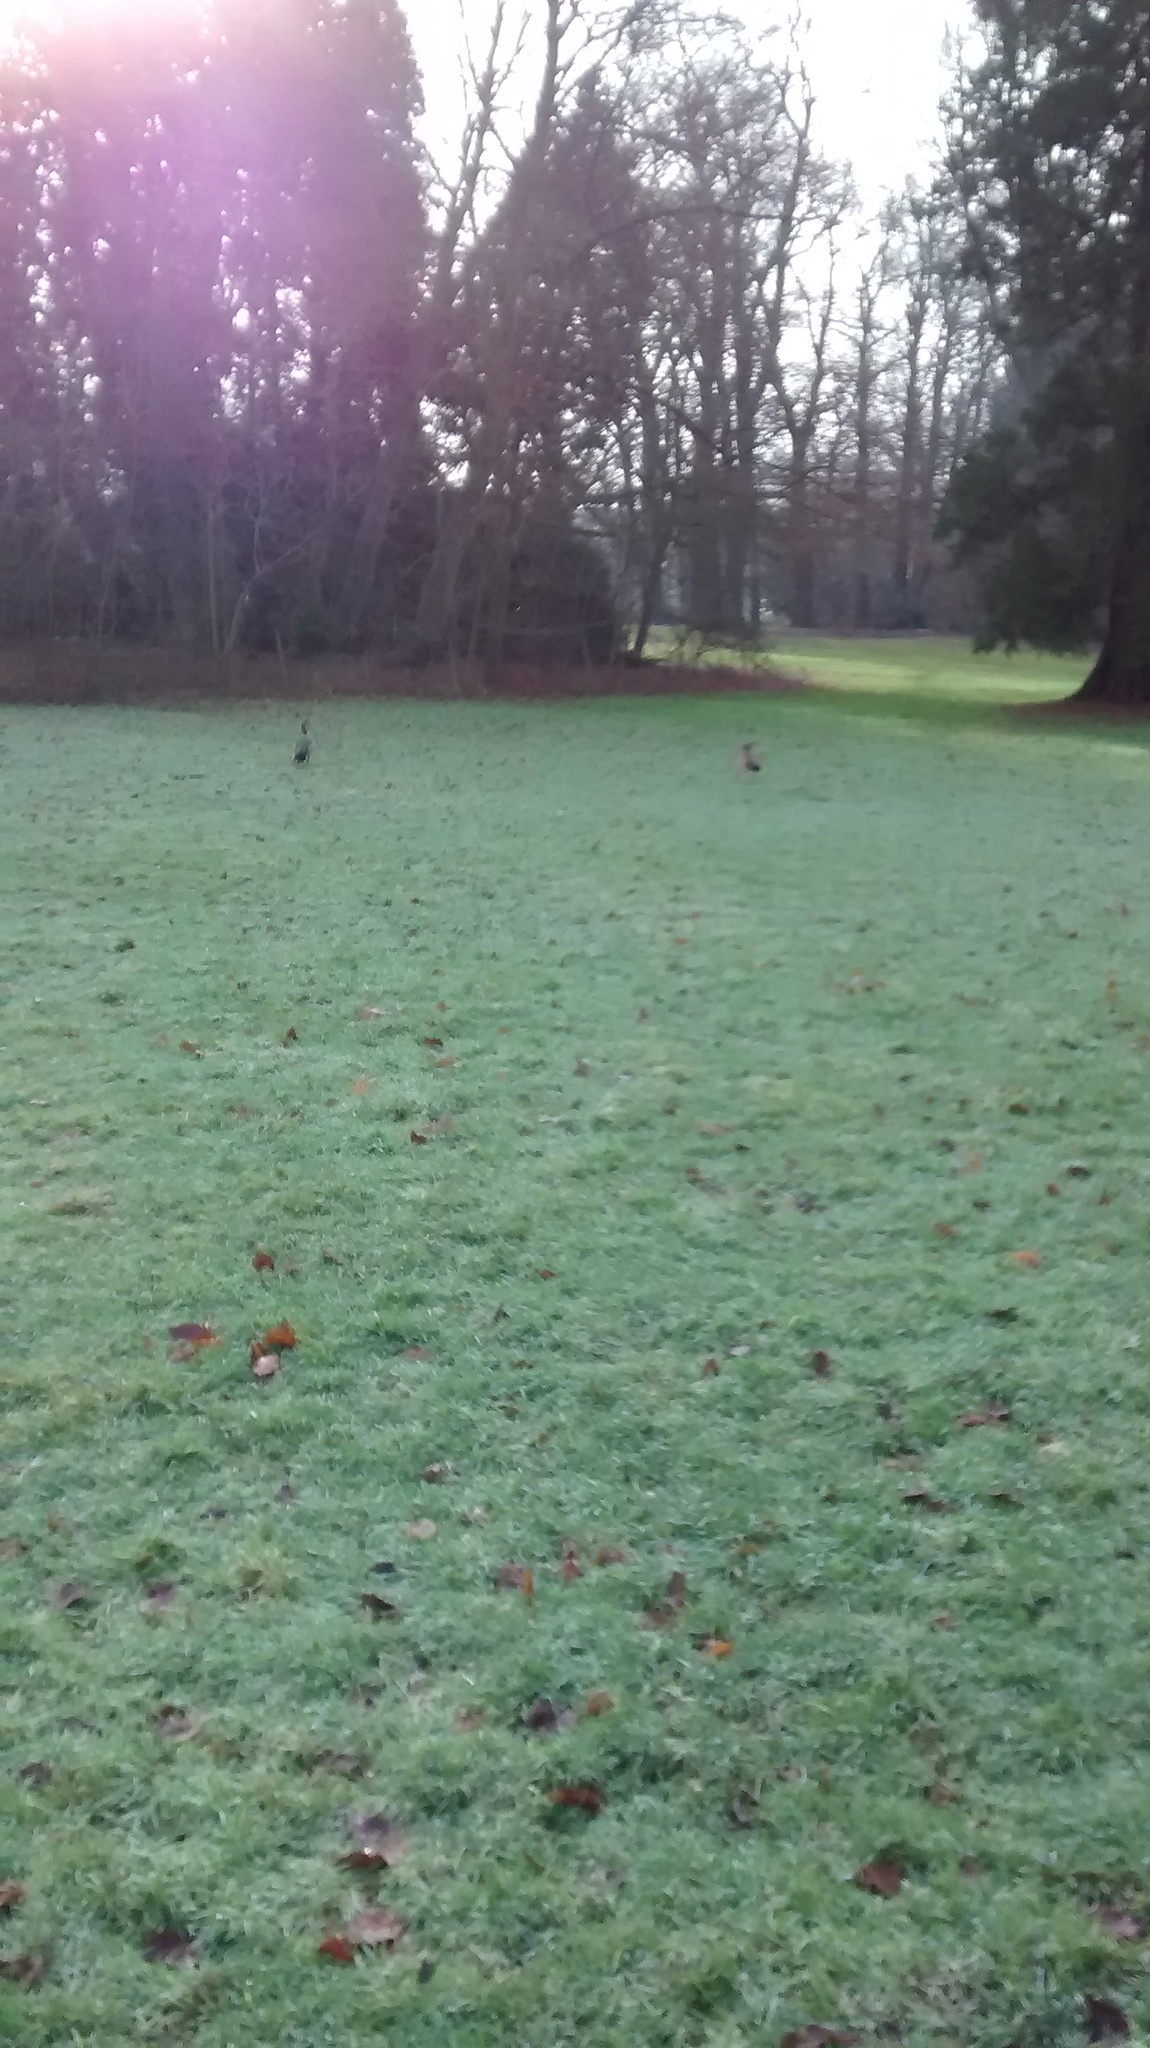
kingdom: Animalia
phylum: Chordata
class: Aves
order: Anseriformes
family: Anatidae
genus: Alopochen
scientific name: Alopochen aegyptiaca
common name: Egyptian goose
